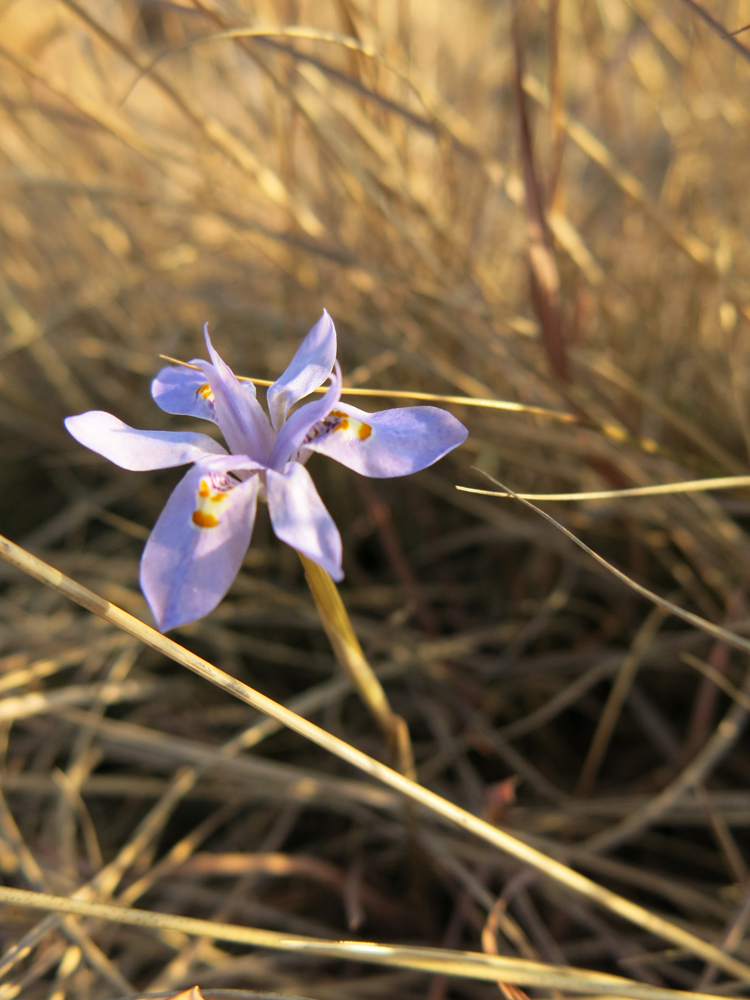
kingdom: Plantae
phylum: Tracheophyta
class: Liliopsida
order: Asparagales
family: Iridaceae
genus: Moraea
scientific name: Moraea stricta
